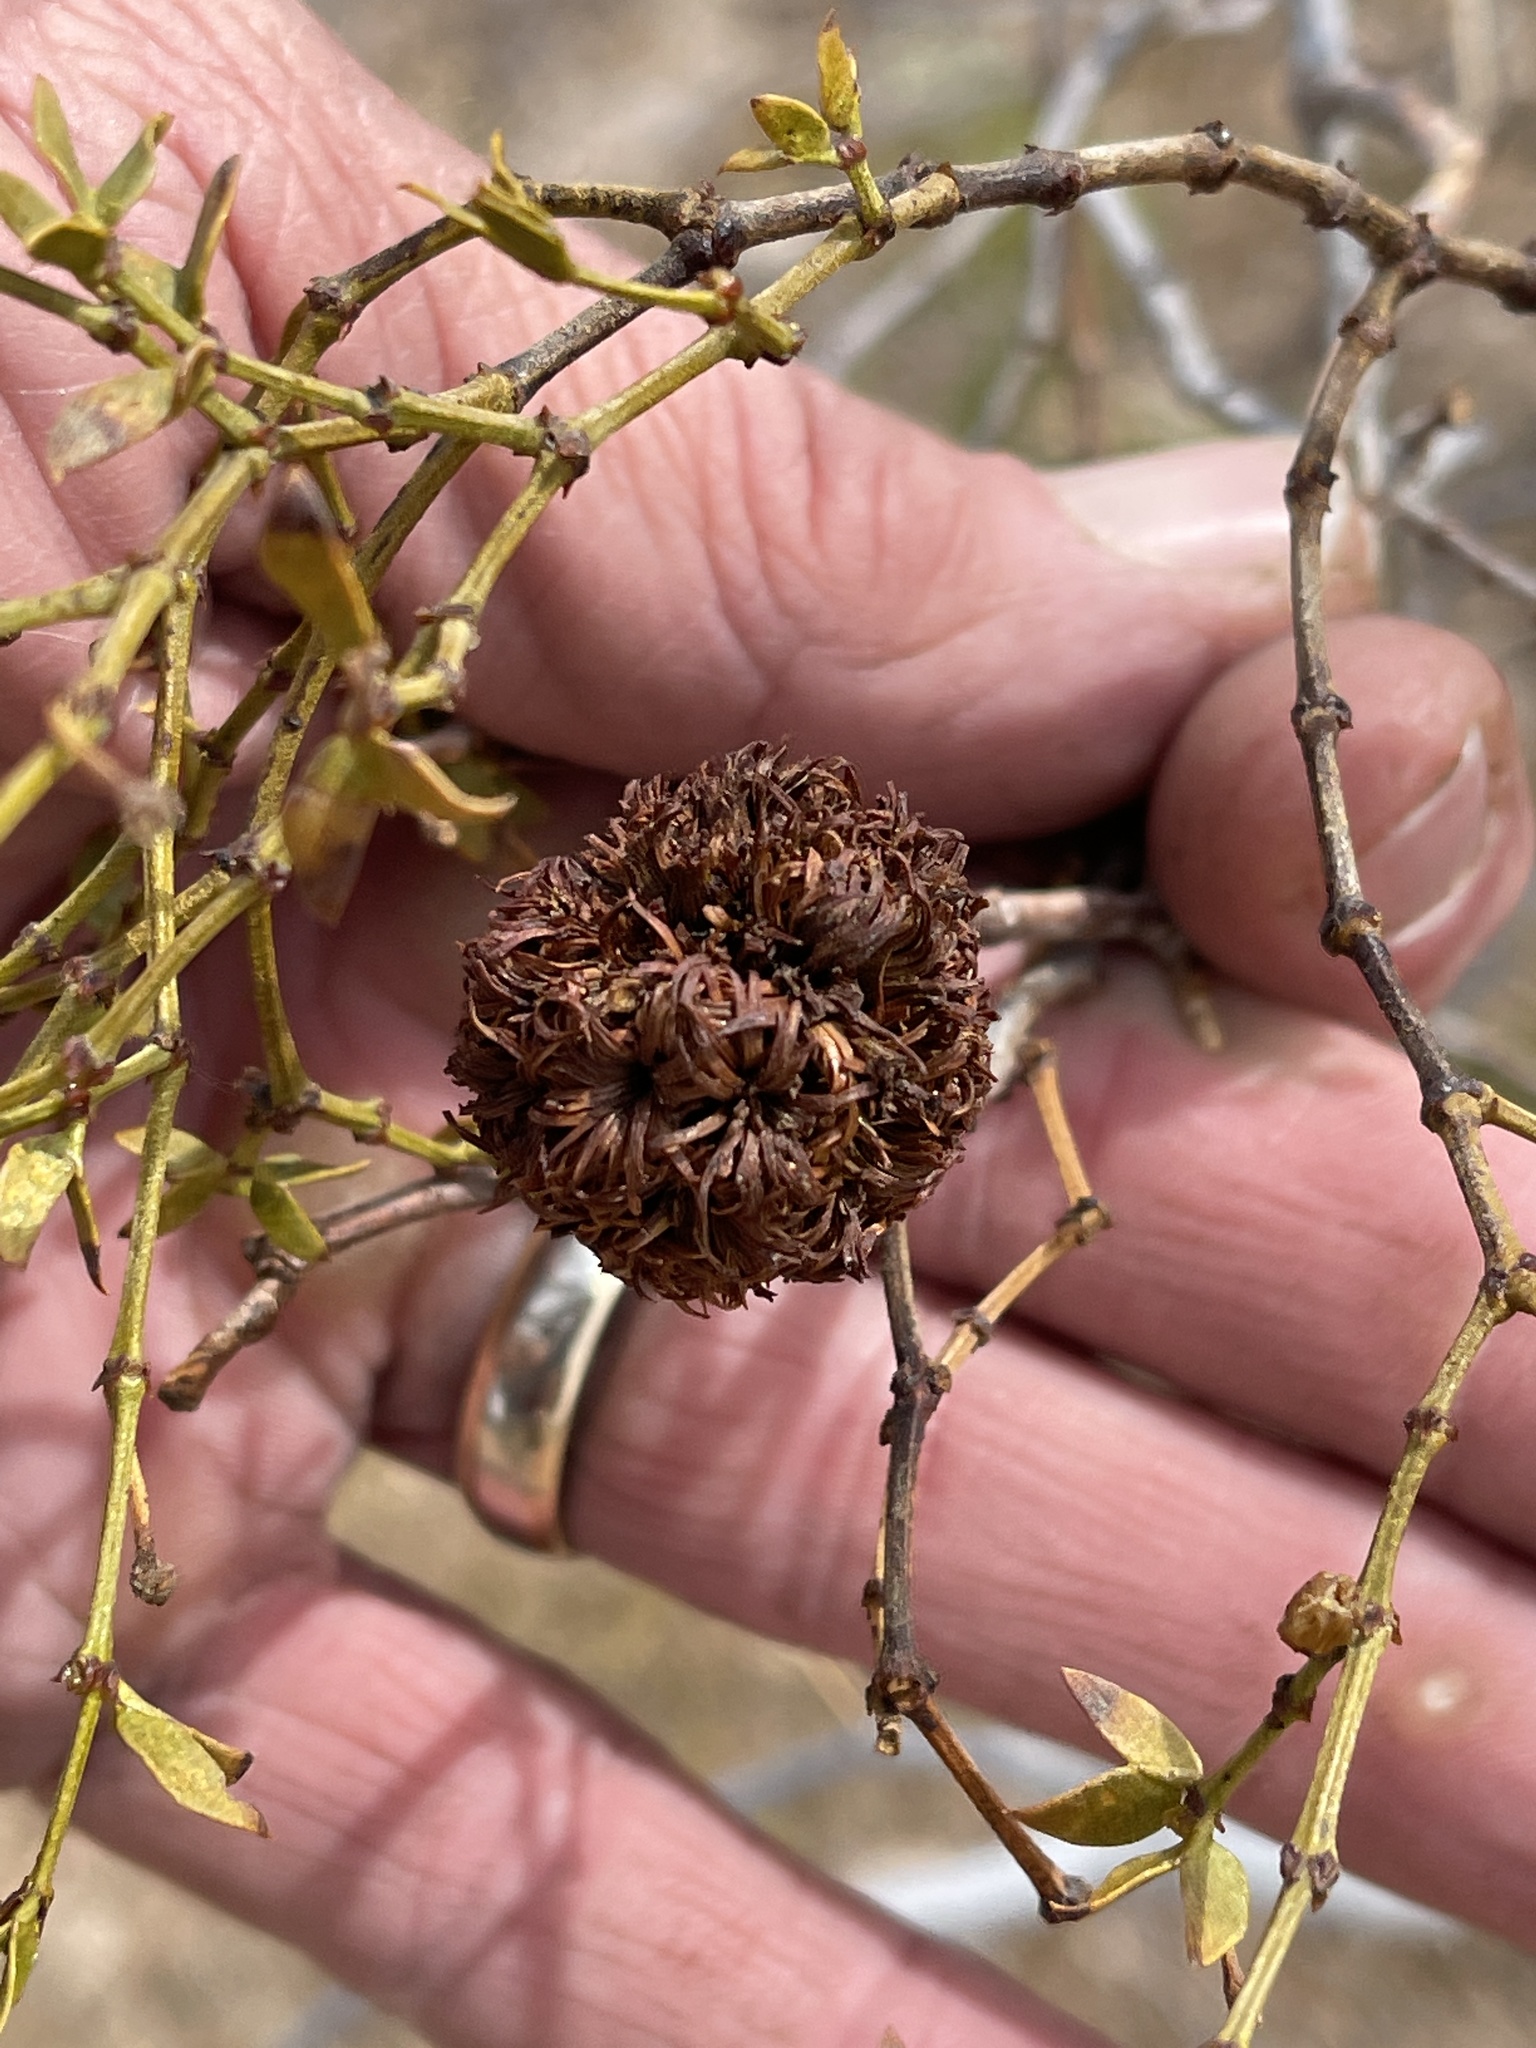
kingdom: Animalia
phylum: Arthropoda
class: Insecta
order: Diptera
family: Cecidomyiidae
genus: Asphondylia
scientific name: Asphondylia auripila
